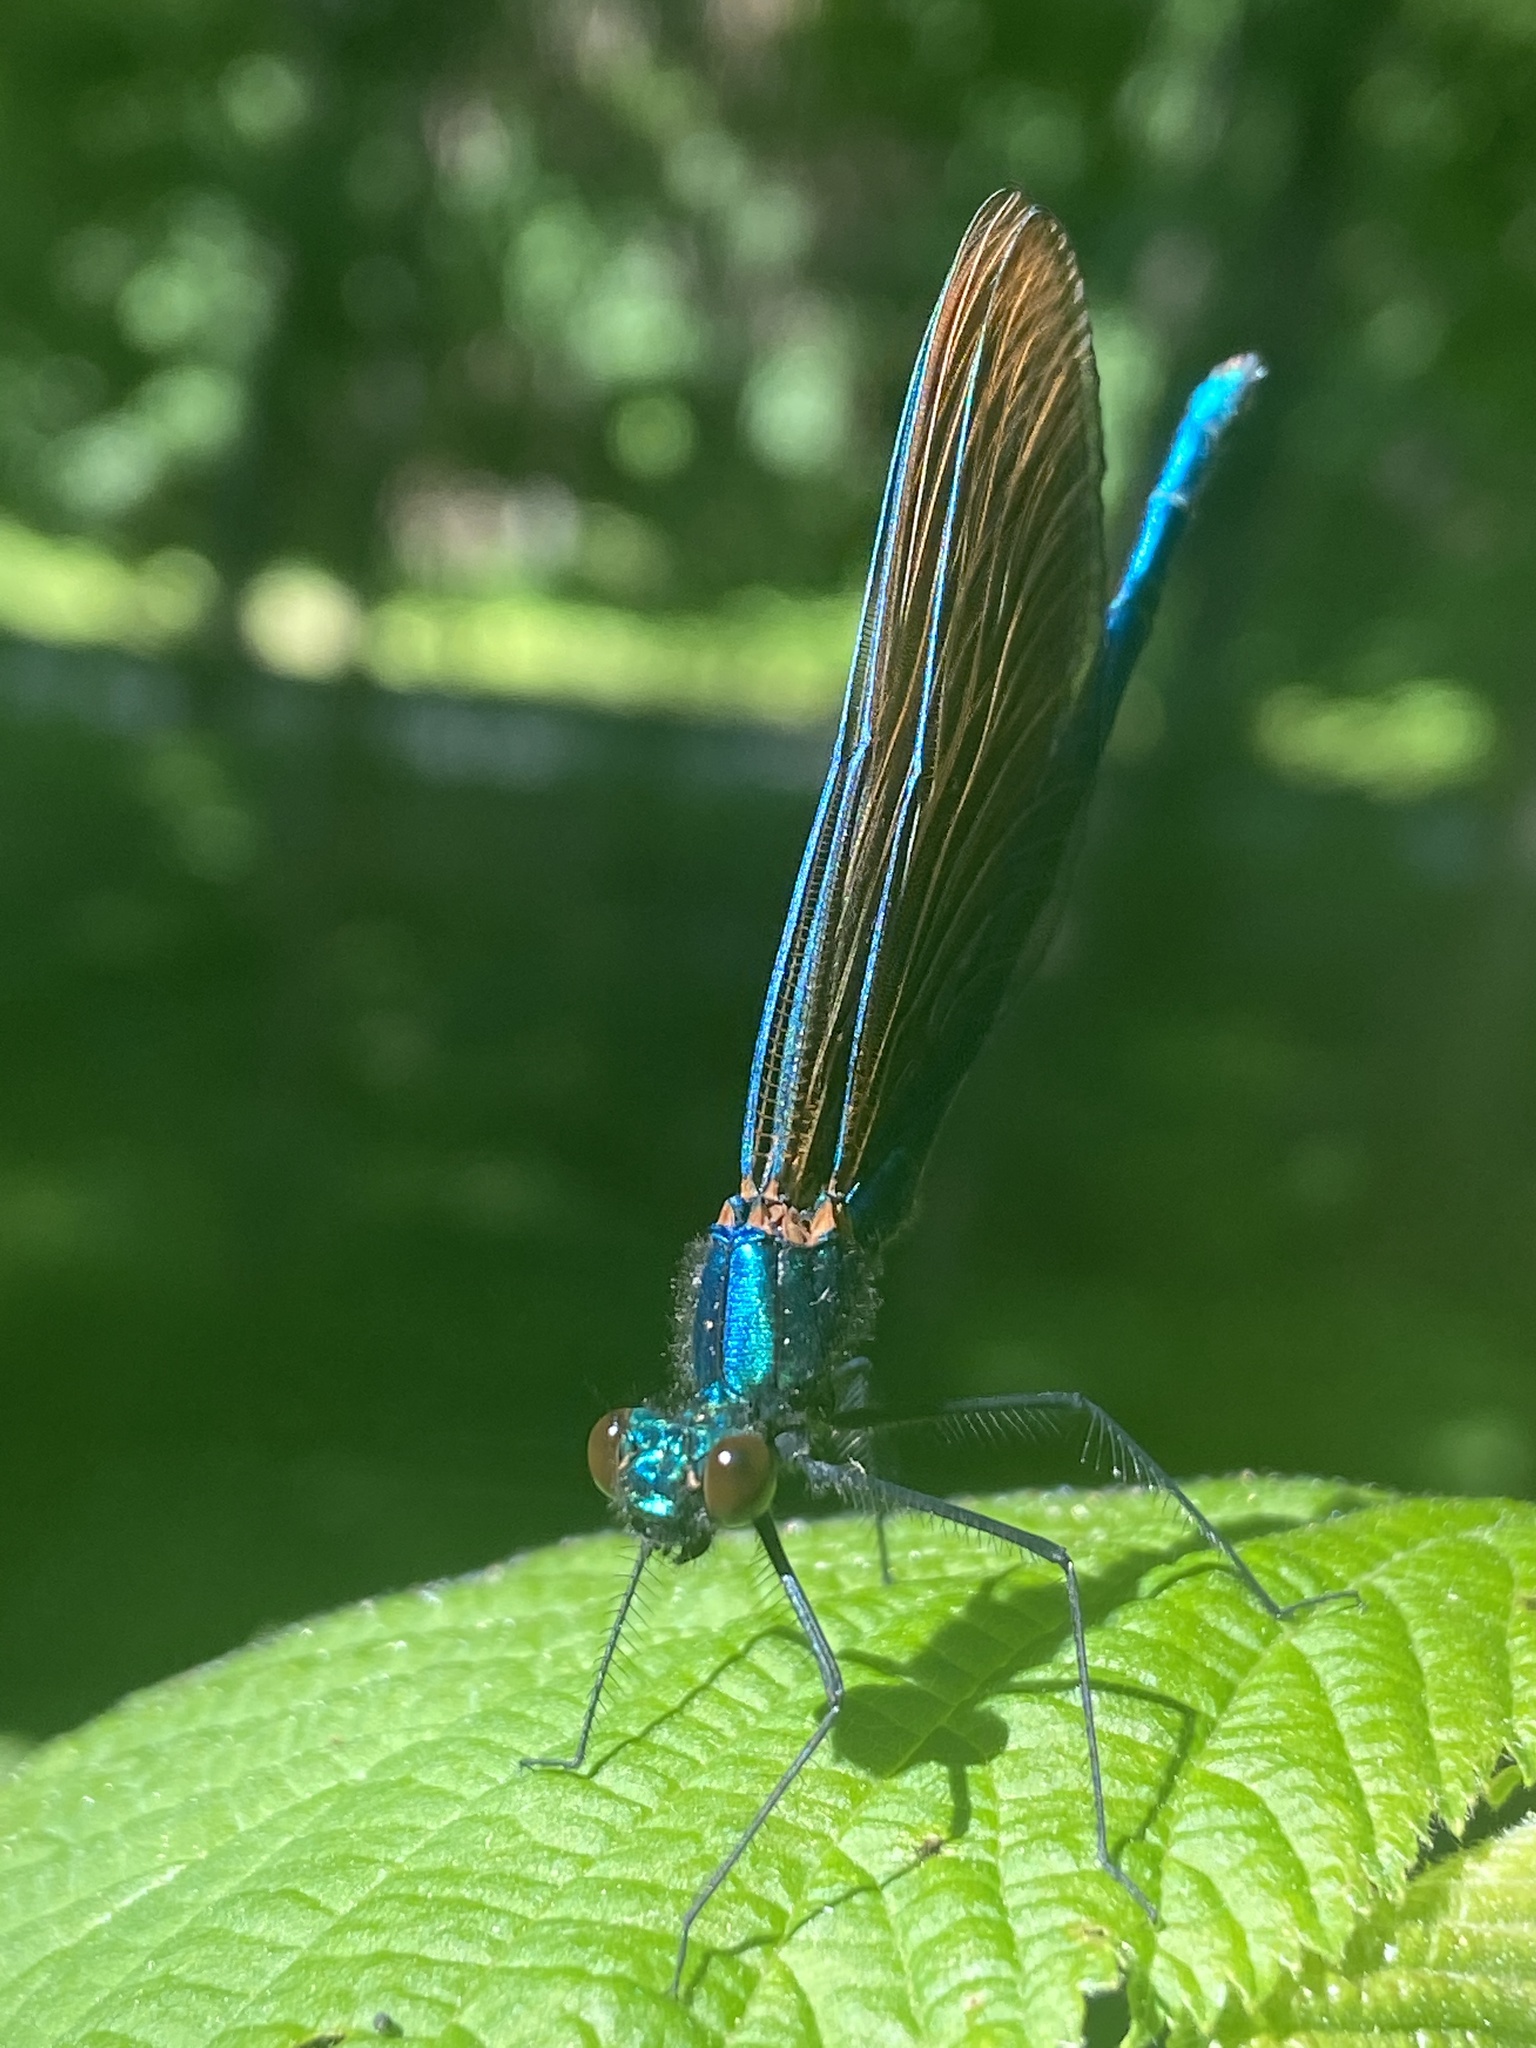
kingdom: Animalia
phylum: Arthropoda
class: Insecta
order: Odonata
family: Calopterygidae
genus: Calopteryx
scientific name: Calopteryx virgo
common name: Beautiful demoiselle
